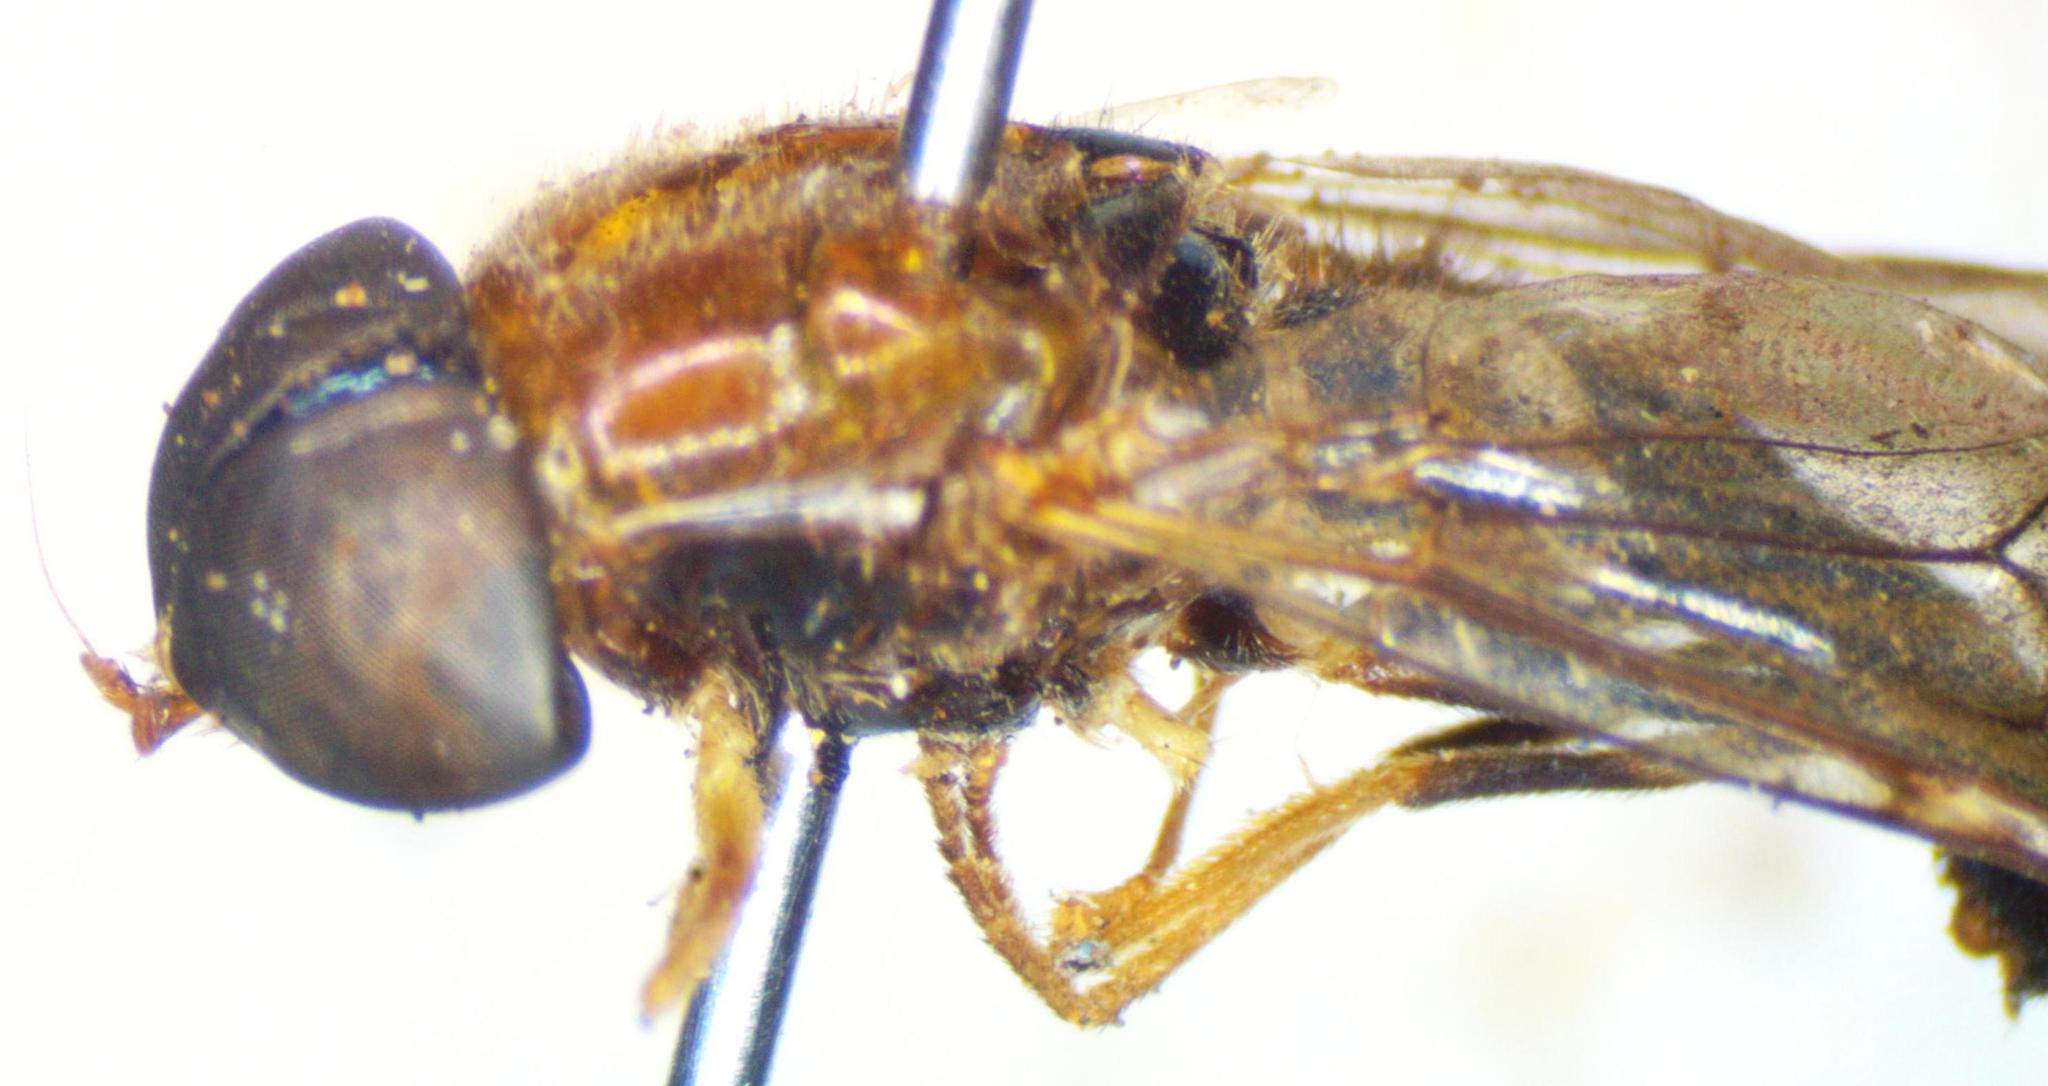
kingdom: Animalia
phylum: Arthropoda
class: Insecta
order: Diptera
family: Stratiomyidae
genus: Sargus
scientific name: Sargus thoracicus
